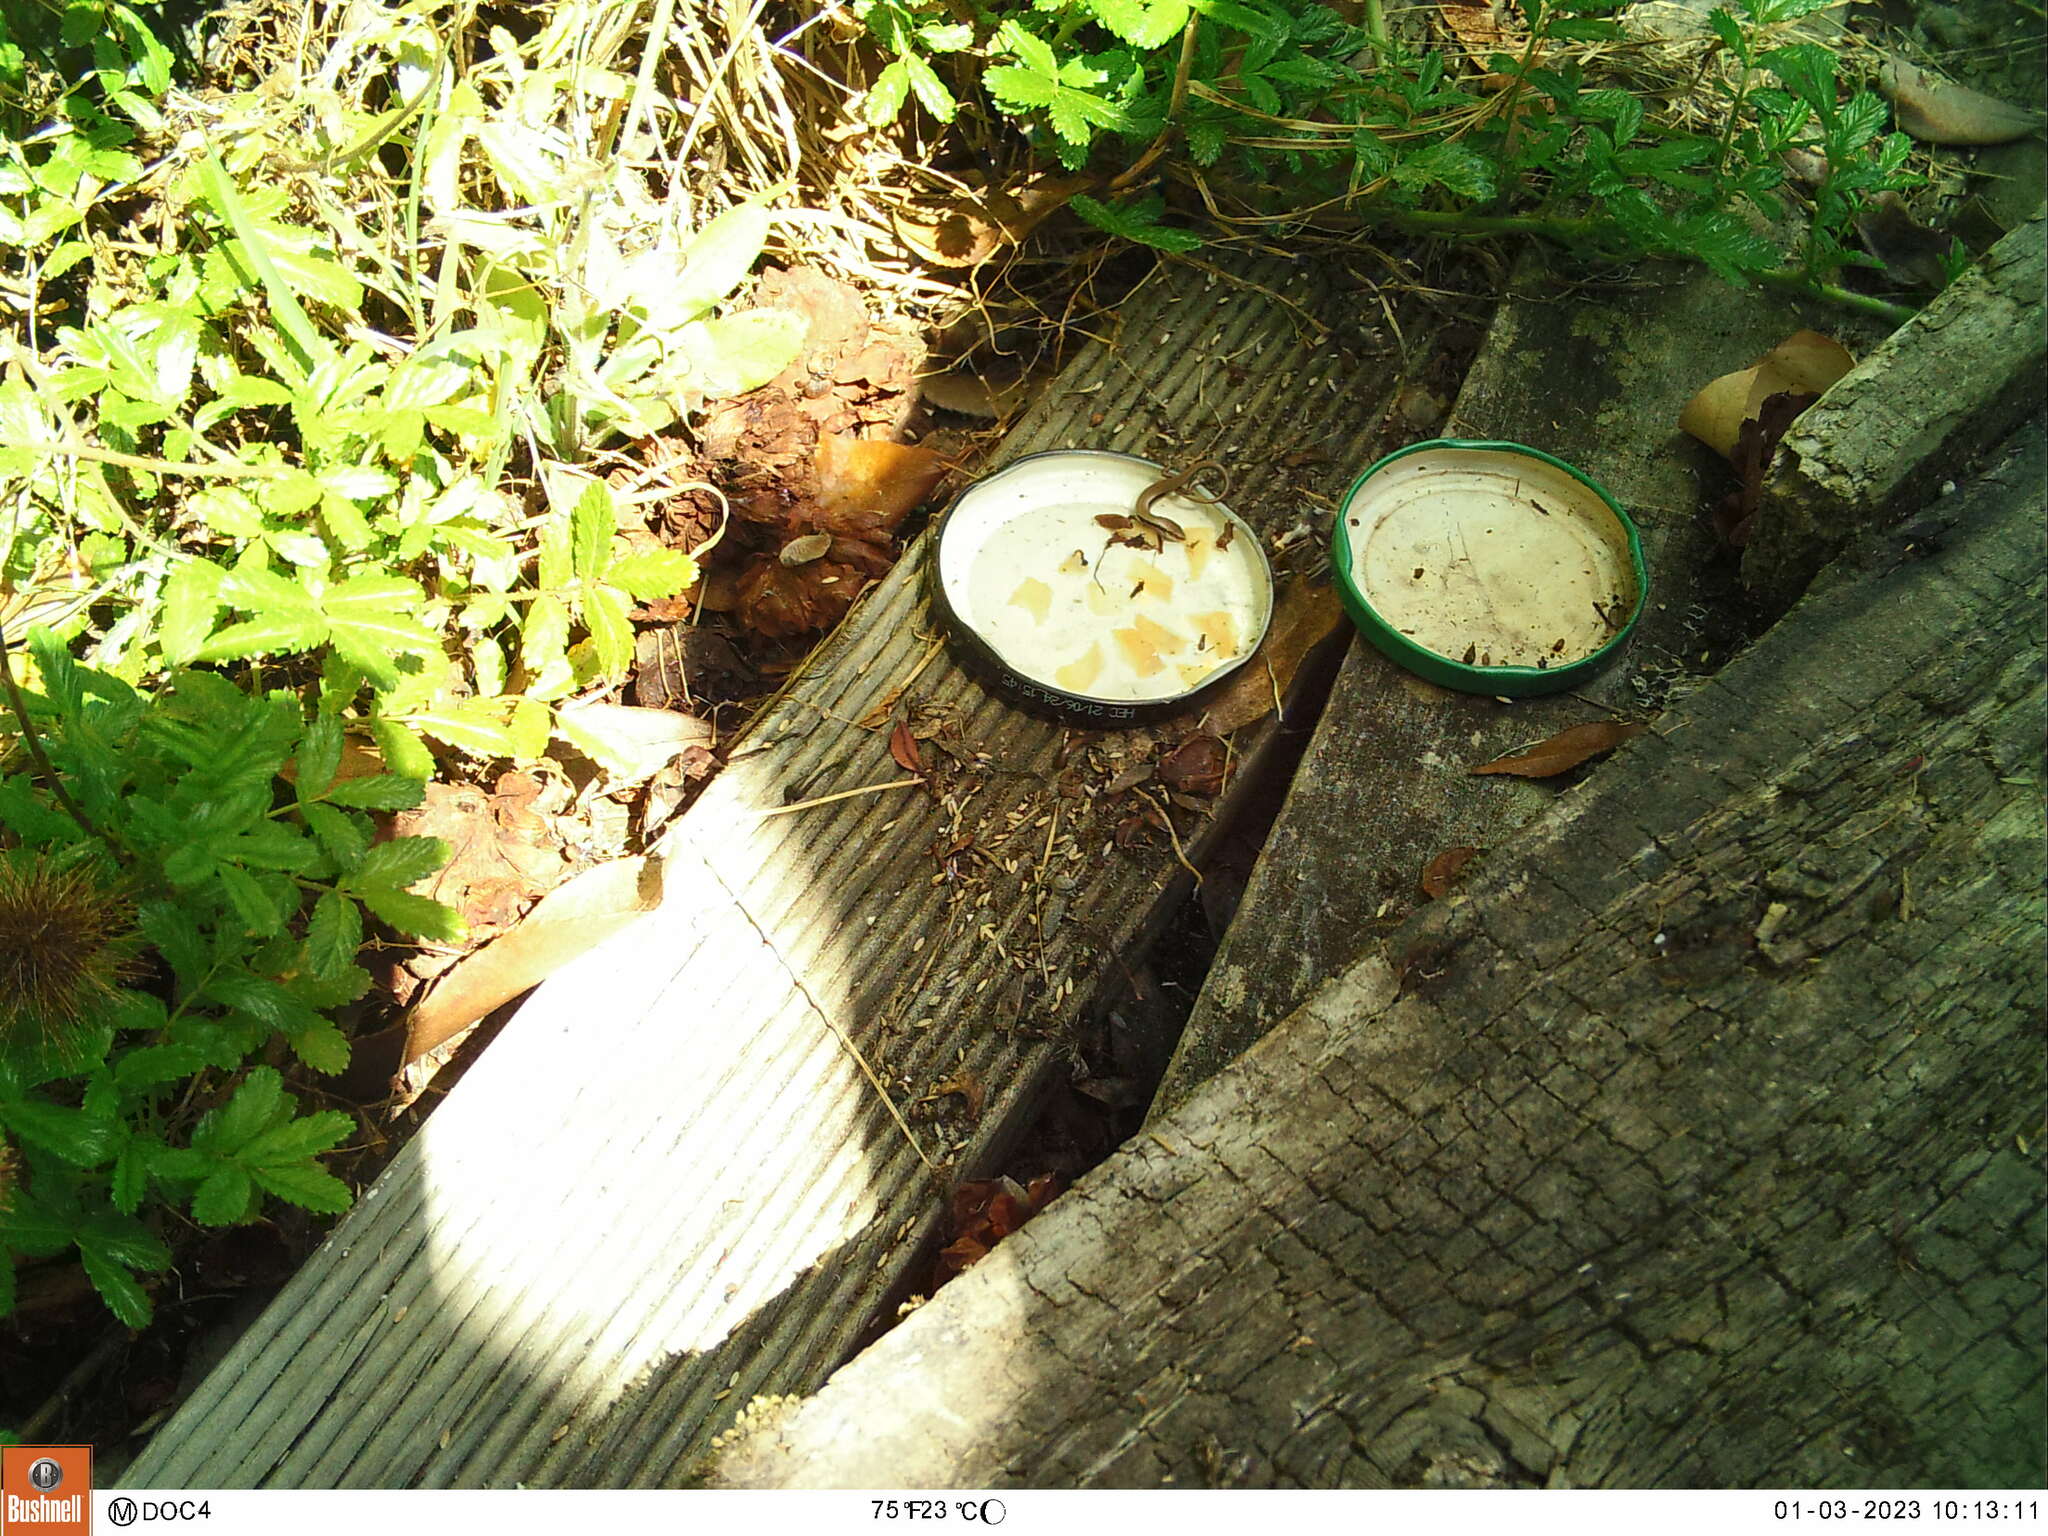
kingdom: Animalia
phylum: Chordata
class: Squamata
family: Scincidae
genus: Oligosoma
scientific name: Oligosoma polychroma
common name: Common new zealand skink
